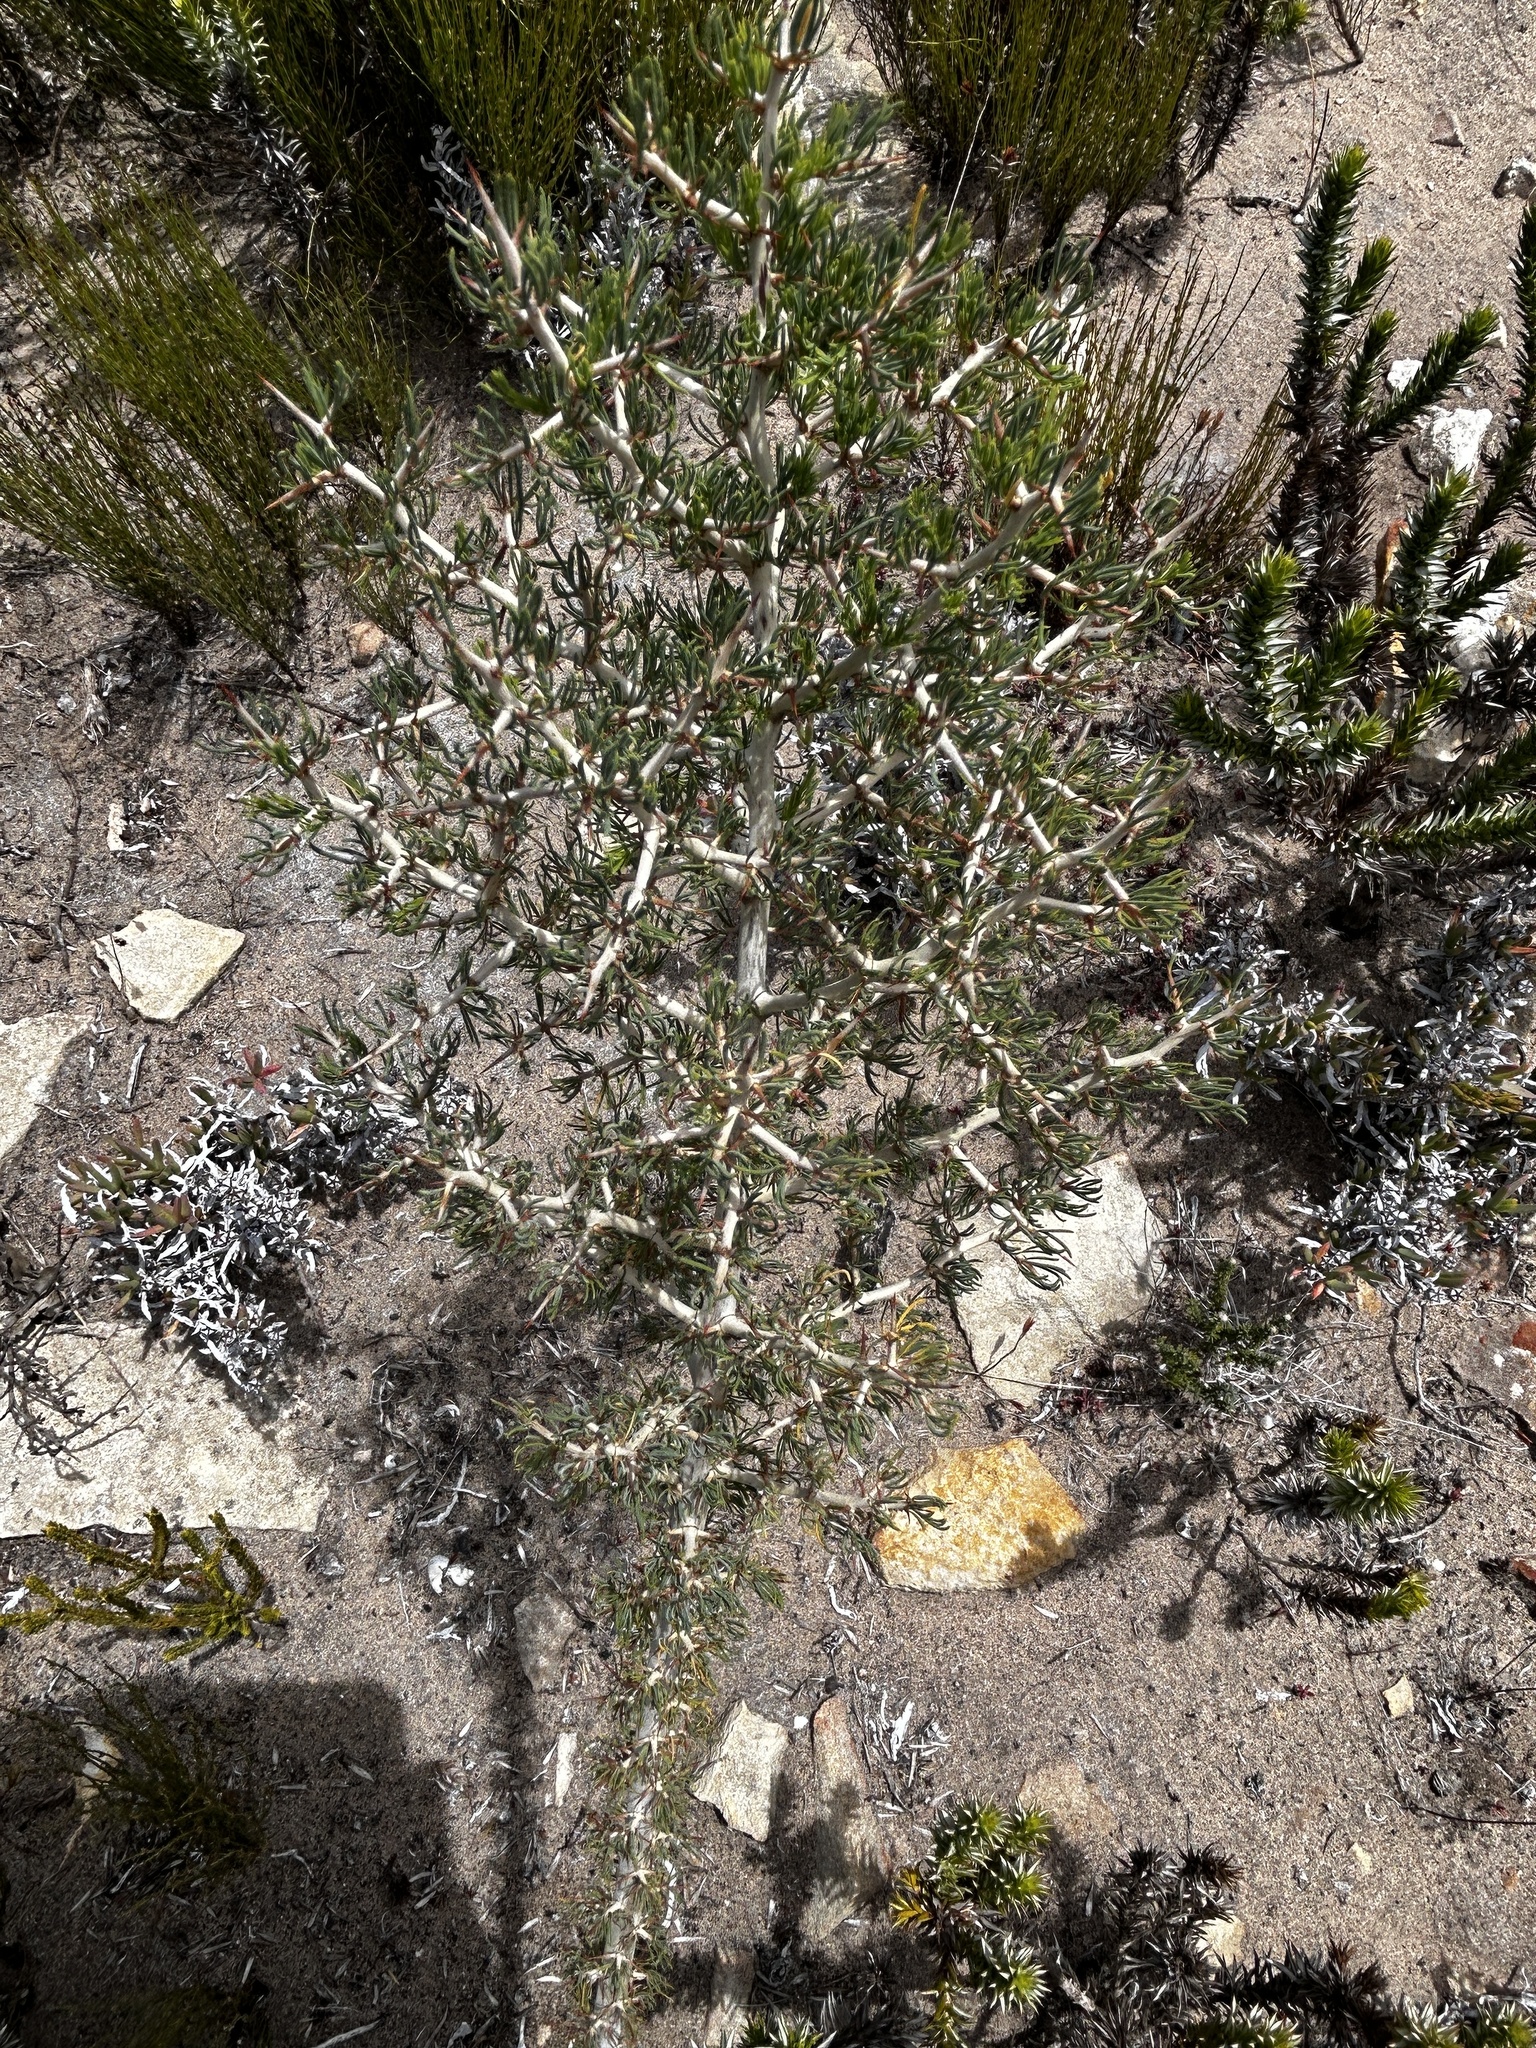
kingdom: Plantae
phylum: Tracheophyta
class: Liliopsida
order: Asparagales
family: Asparagaceae
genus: Asparagus
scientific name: Asparagus mariae
